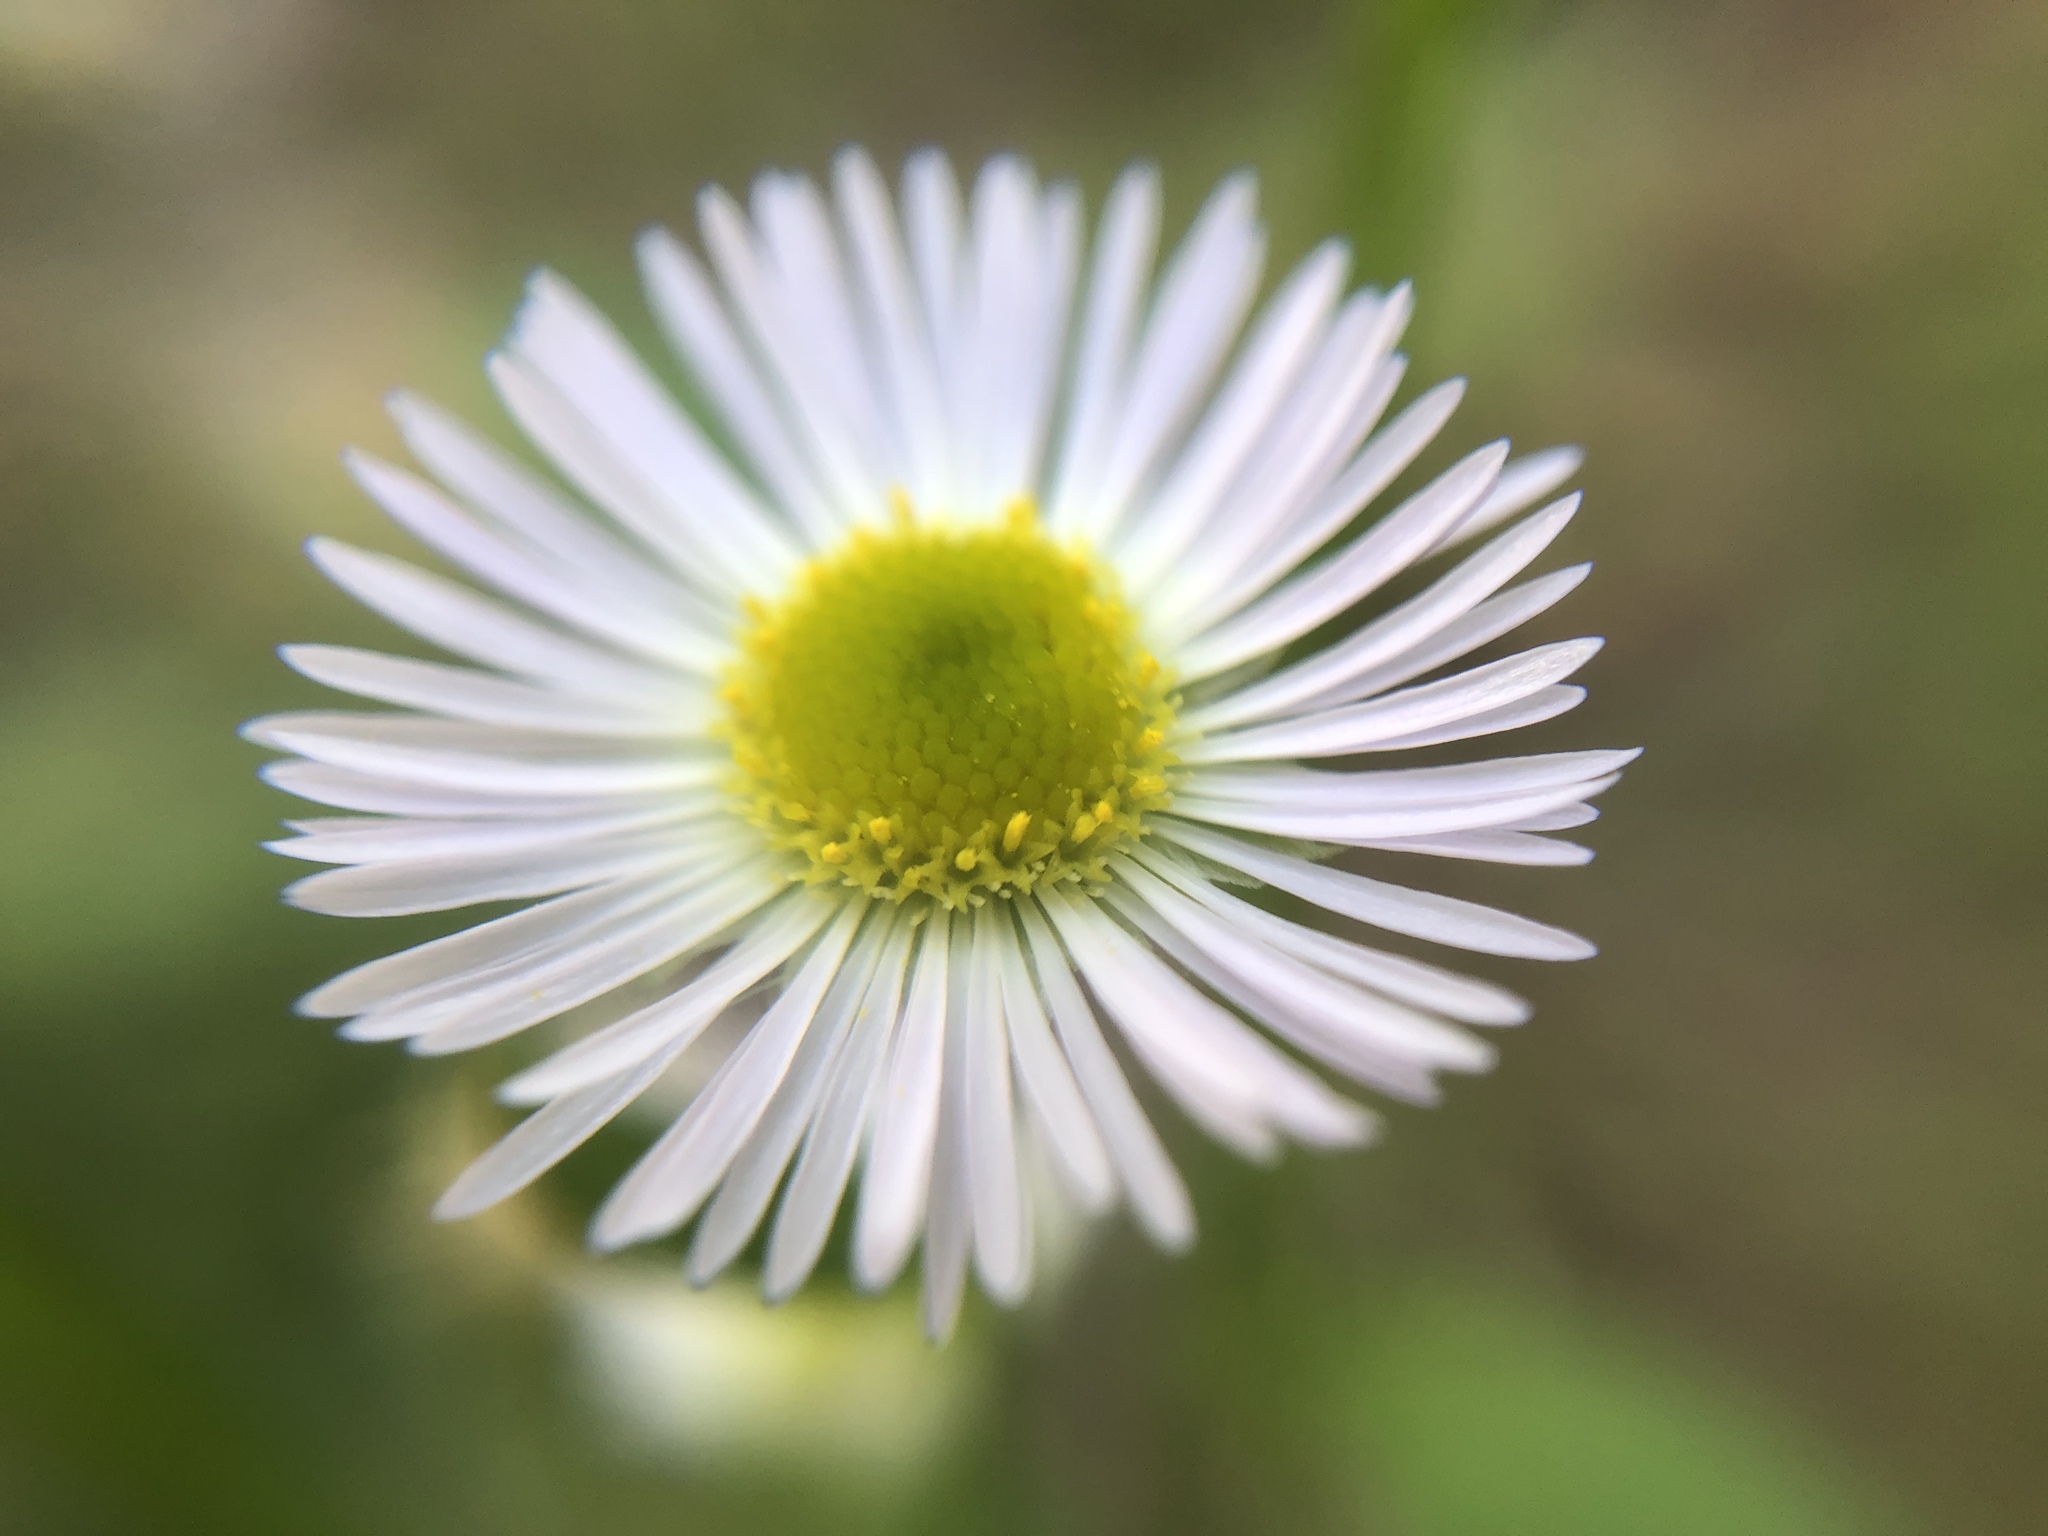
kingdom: Plantae
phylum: Tracheophyta
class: Magnoliopsida
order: Asterales
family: Asteraceae
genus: Erigeron
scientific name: Erigeron annuus
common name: Tall fleabane
